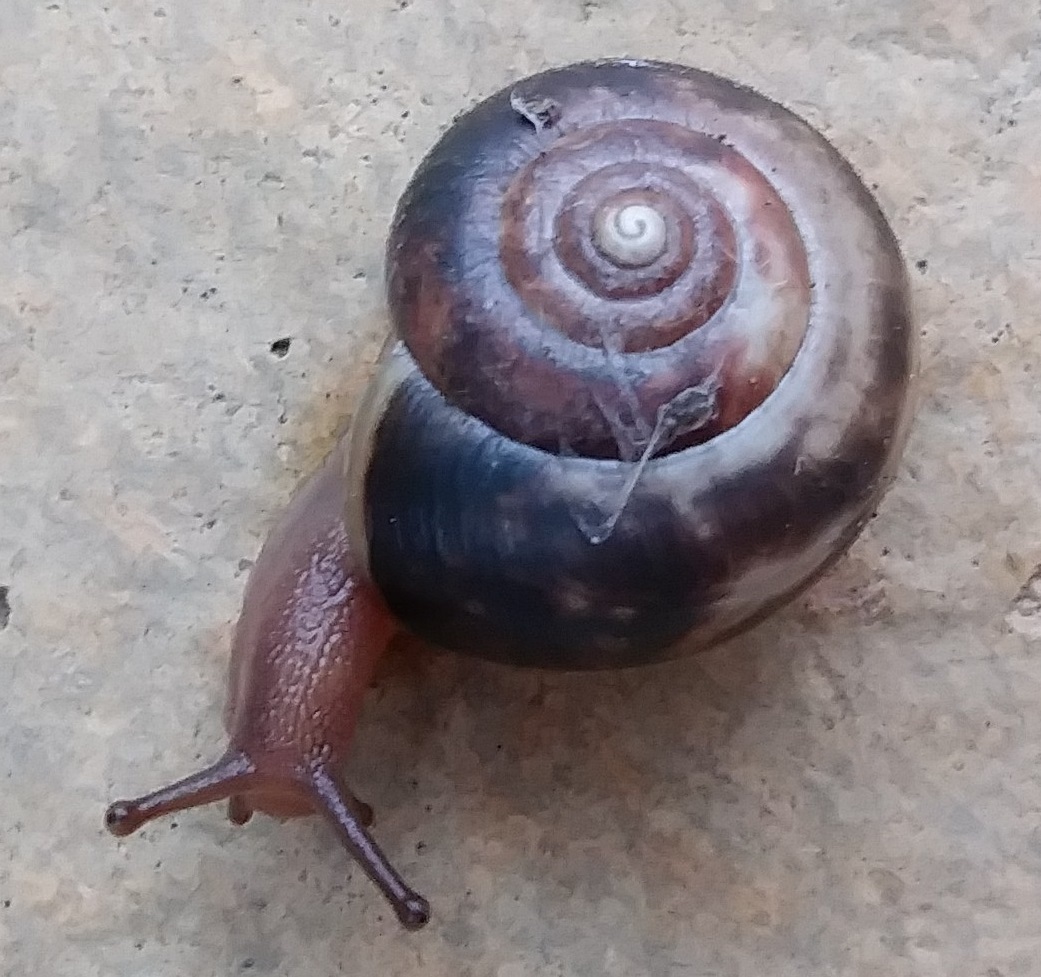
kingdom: Animalia
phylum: Mollusca
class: Gastropoda
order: Stylommatophora
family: Hygromiidae
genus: Monacha
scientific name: Monacha cantiana
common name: Kentish snail
